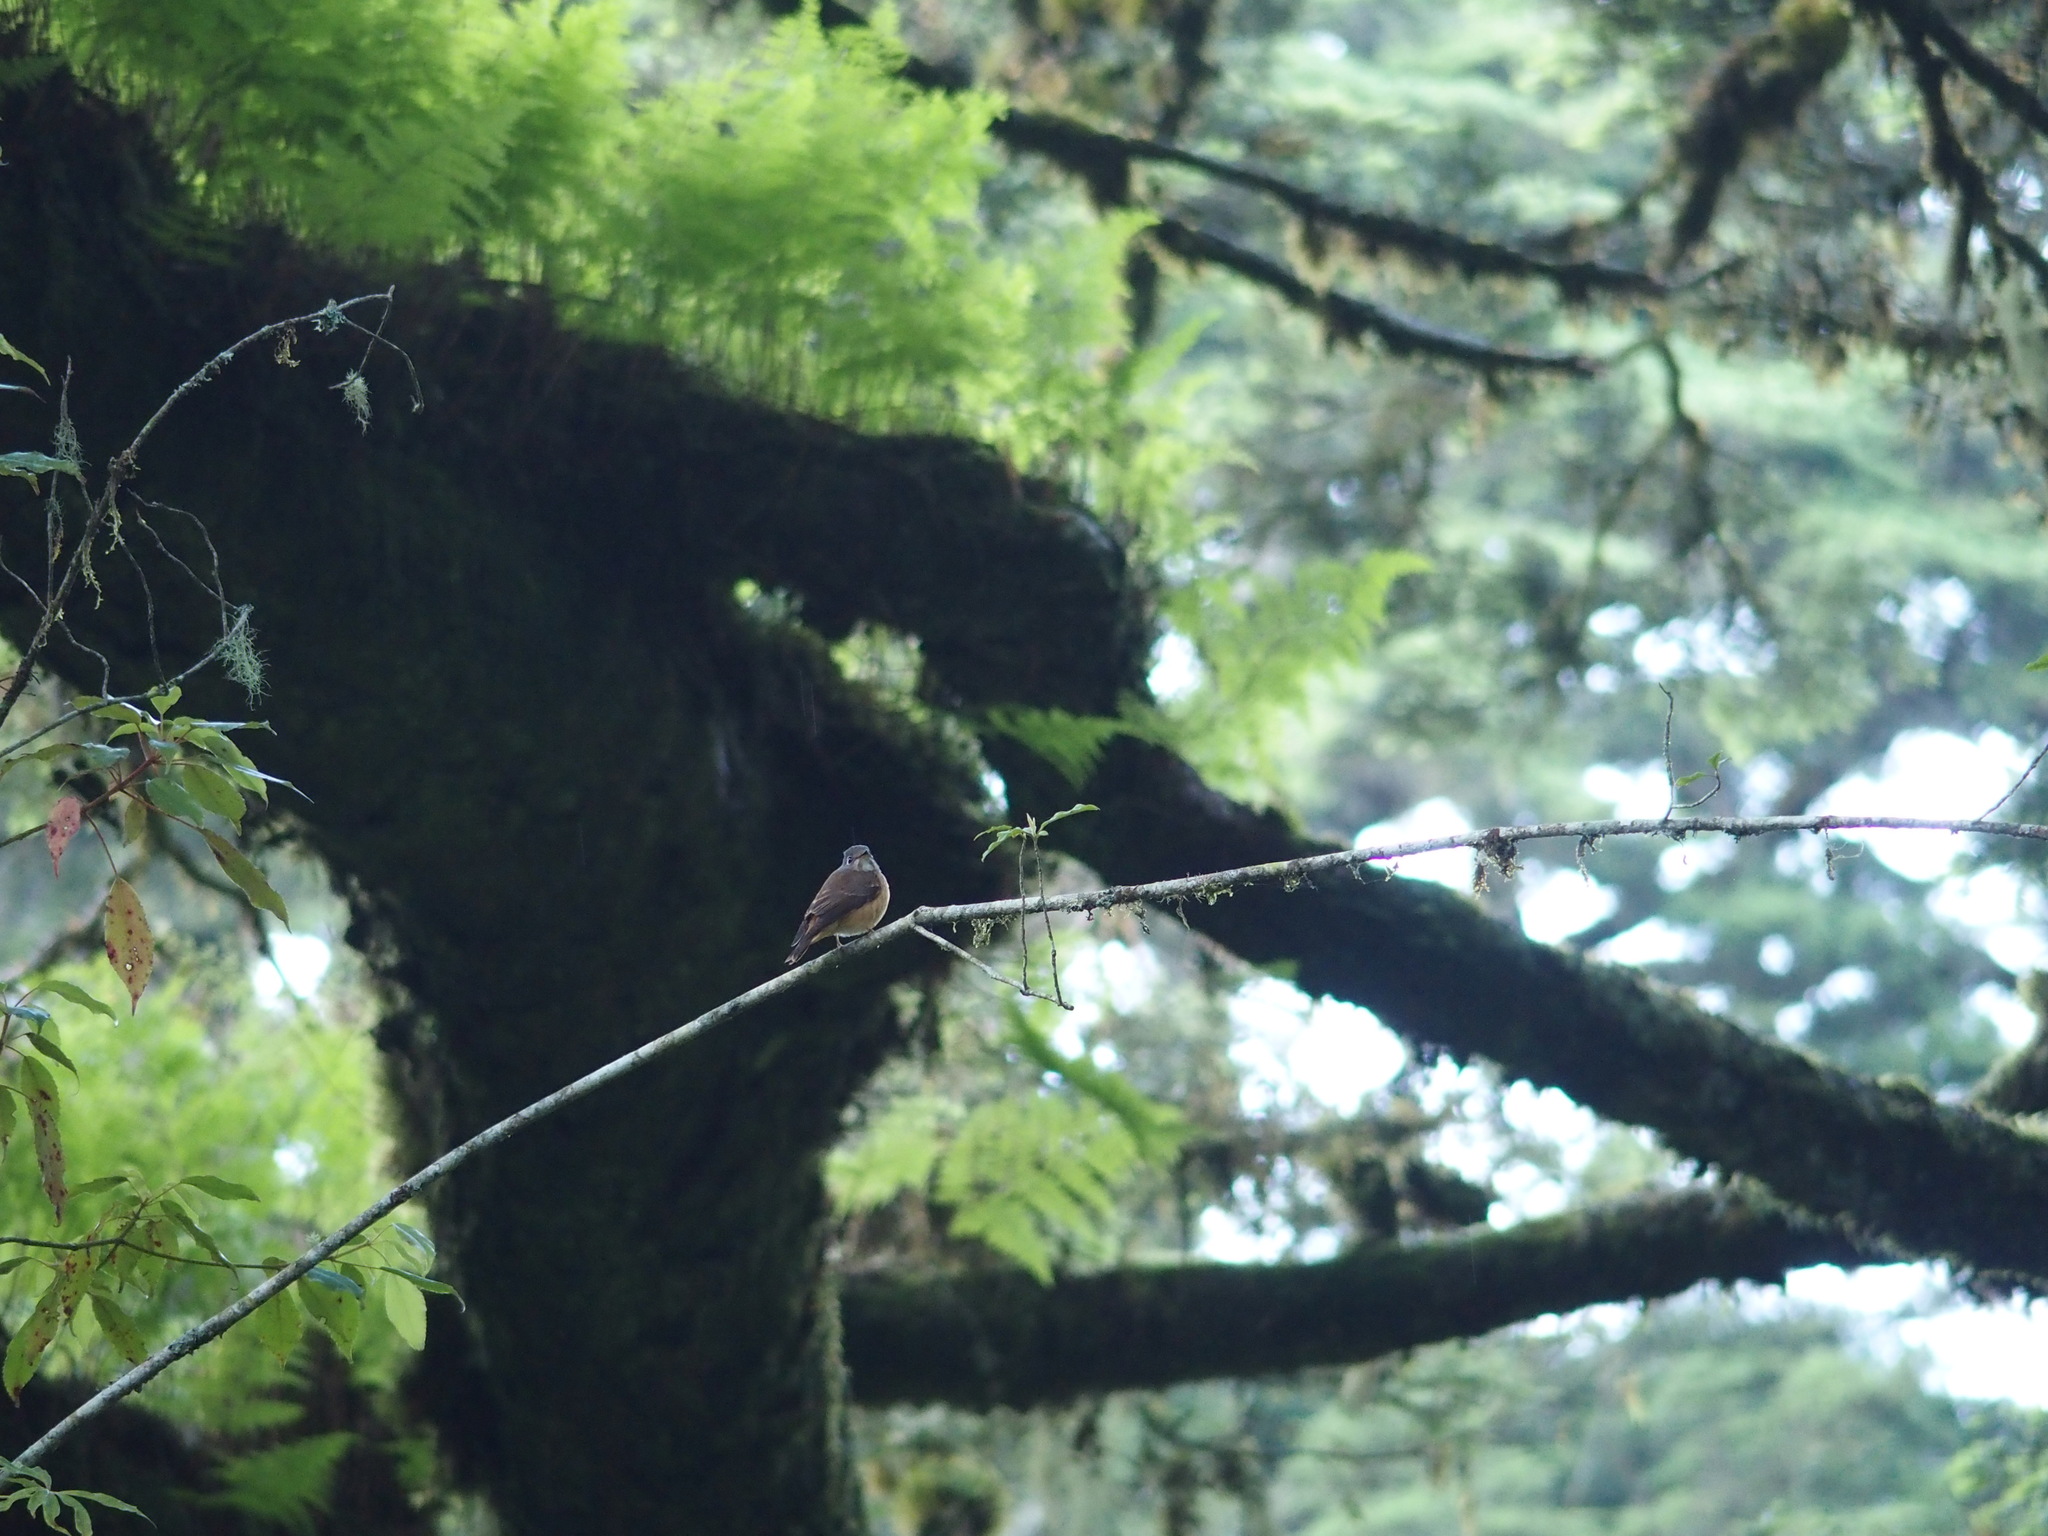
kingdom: Animalia
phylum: Chordata
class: Aves
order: Passeriformes
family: Muscicapidae
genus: Muscicapa
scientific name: Muscicapa ferruginea
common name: Ferruginous flycatcher
